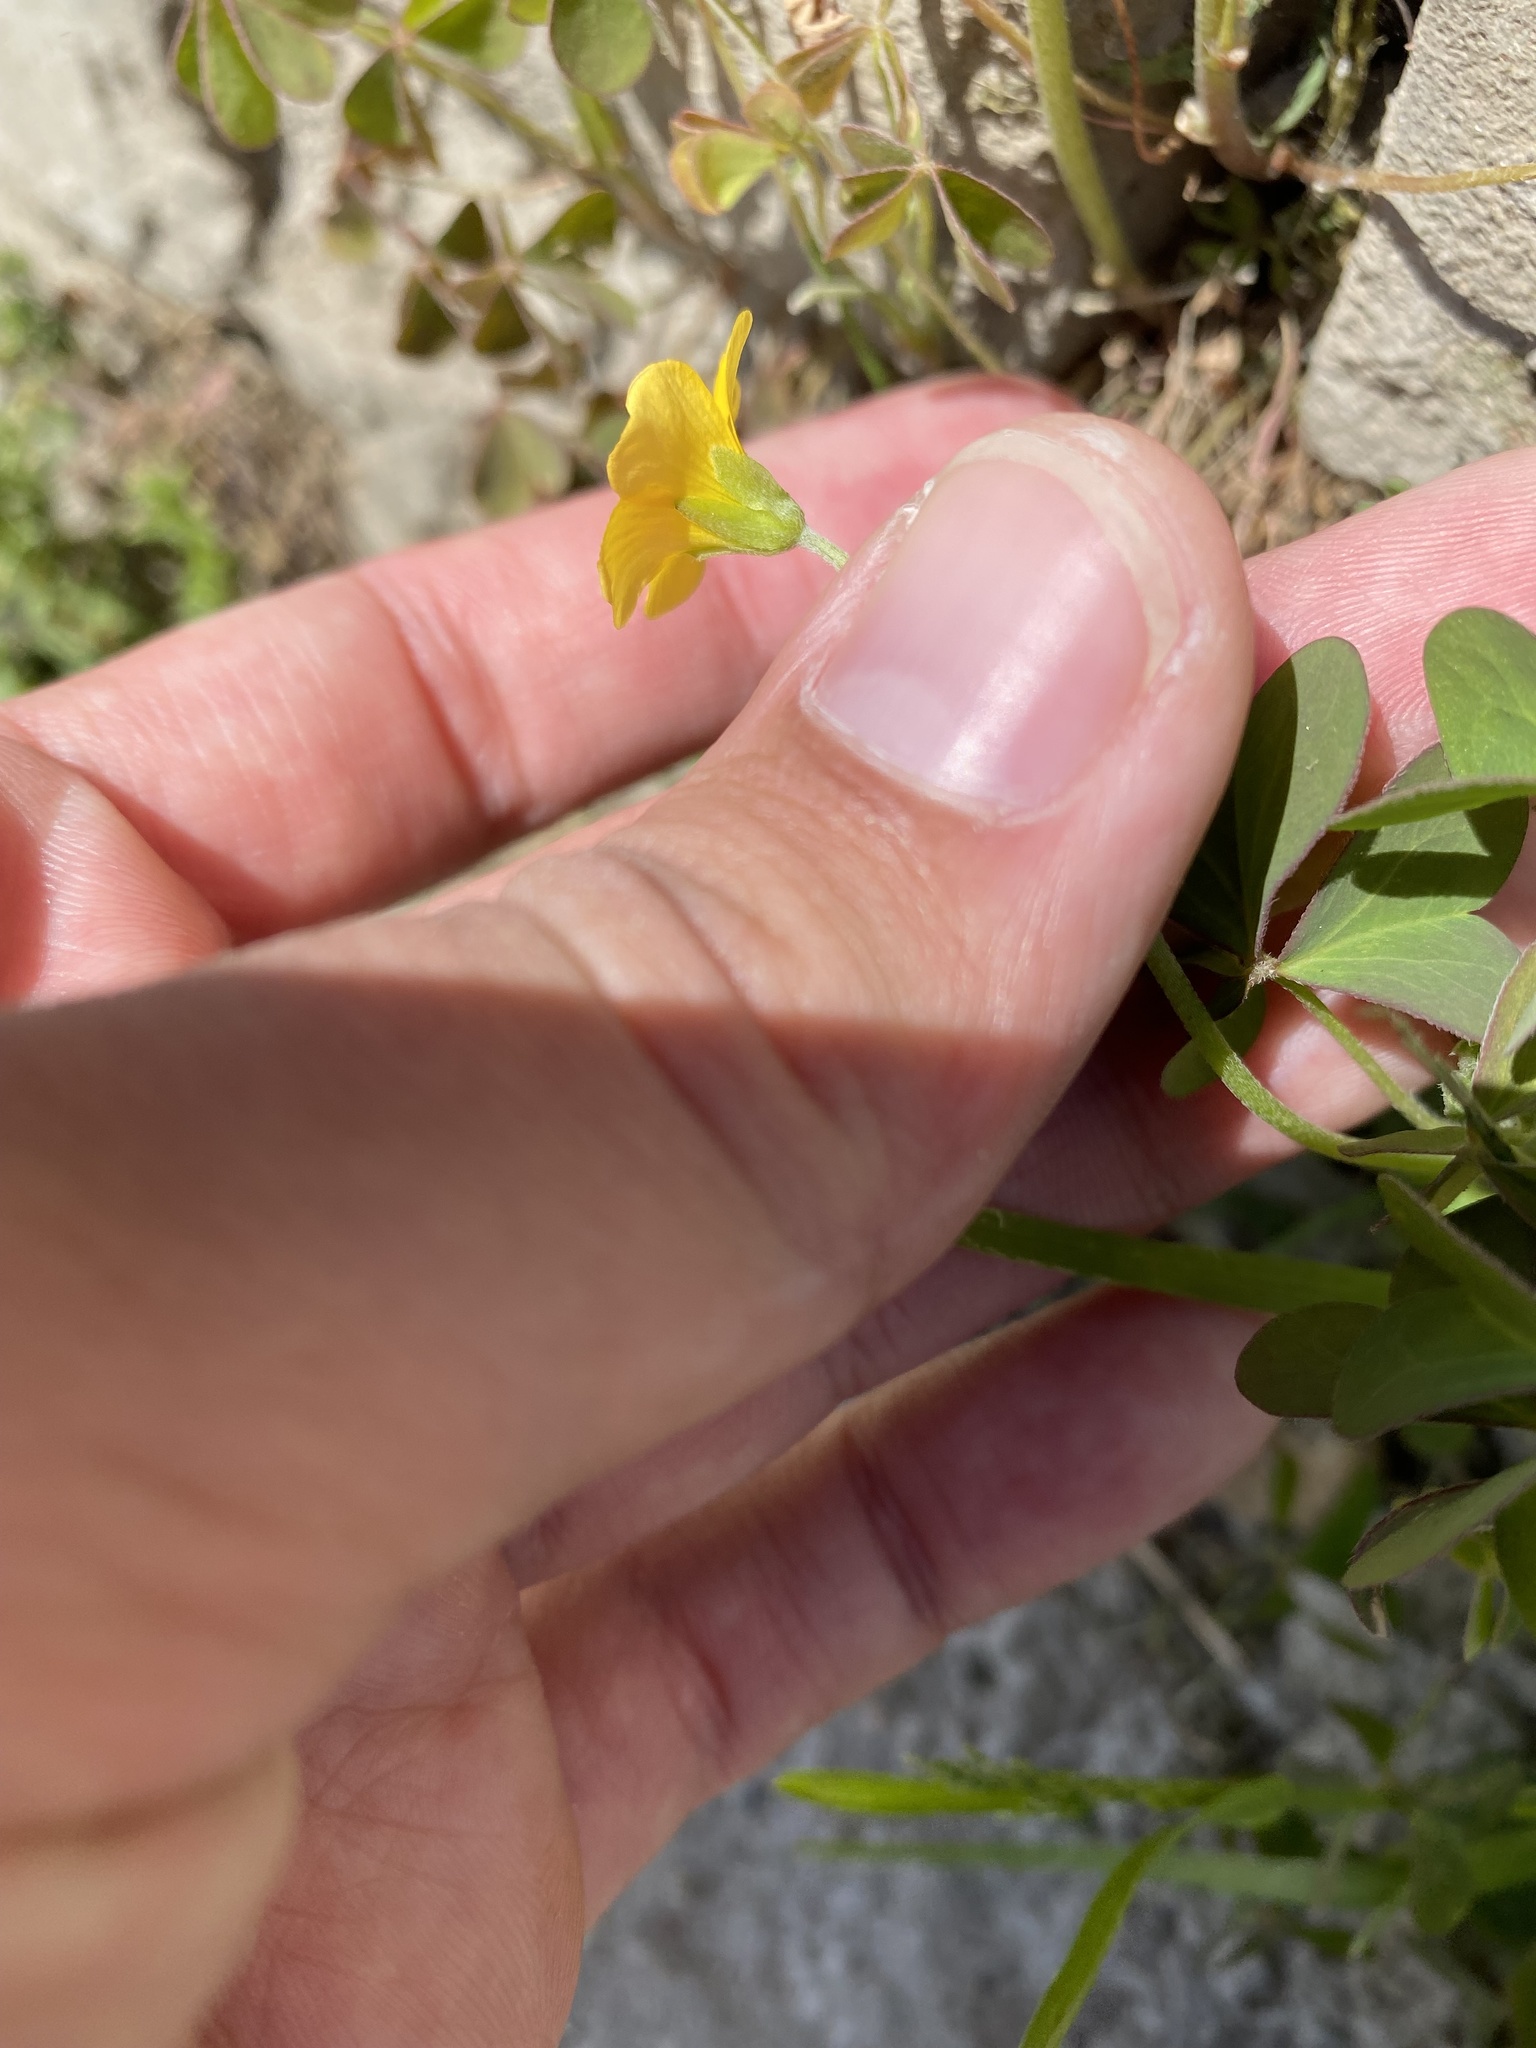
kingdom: Plantae
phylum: Tracheophyta
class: Magnoliopsida
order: Oxalidales
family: Oxalidaceae
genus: Oxalis
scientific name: Oxalis corniculata
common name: Procumbent yellow-sorrel
